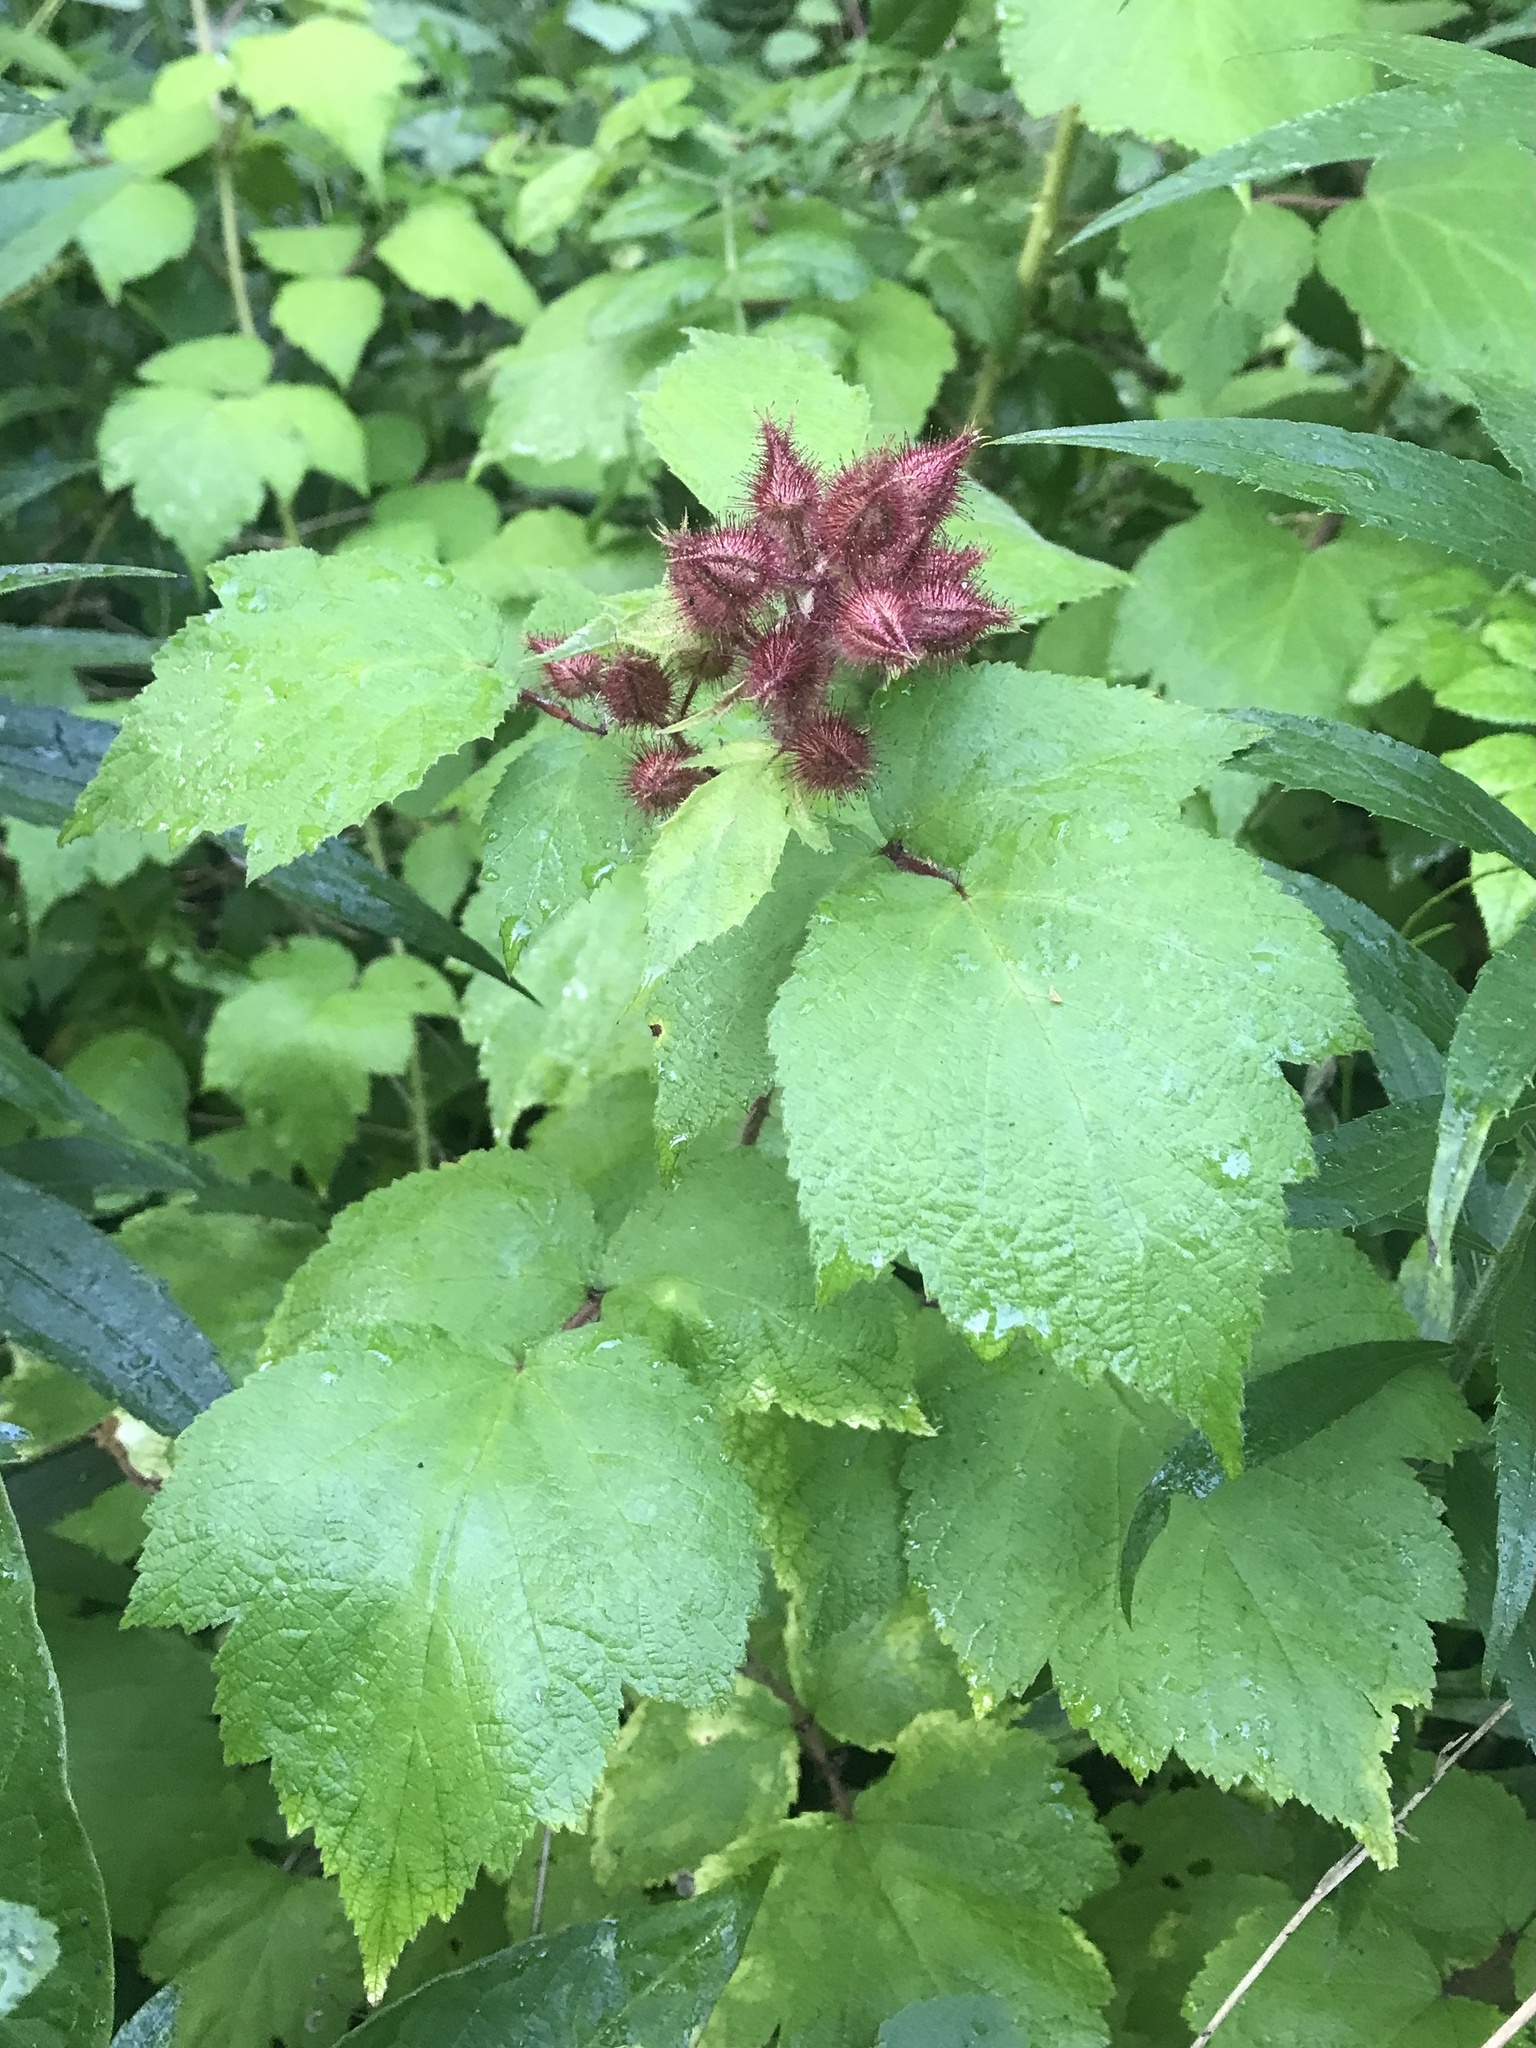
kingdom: Plantae
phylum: Tracheophyta
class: Magnoliopsida
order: Rosales
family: Rosaceae
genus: Rubus
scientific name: Rubus phoenicolasius
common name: Japanese wineberry
